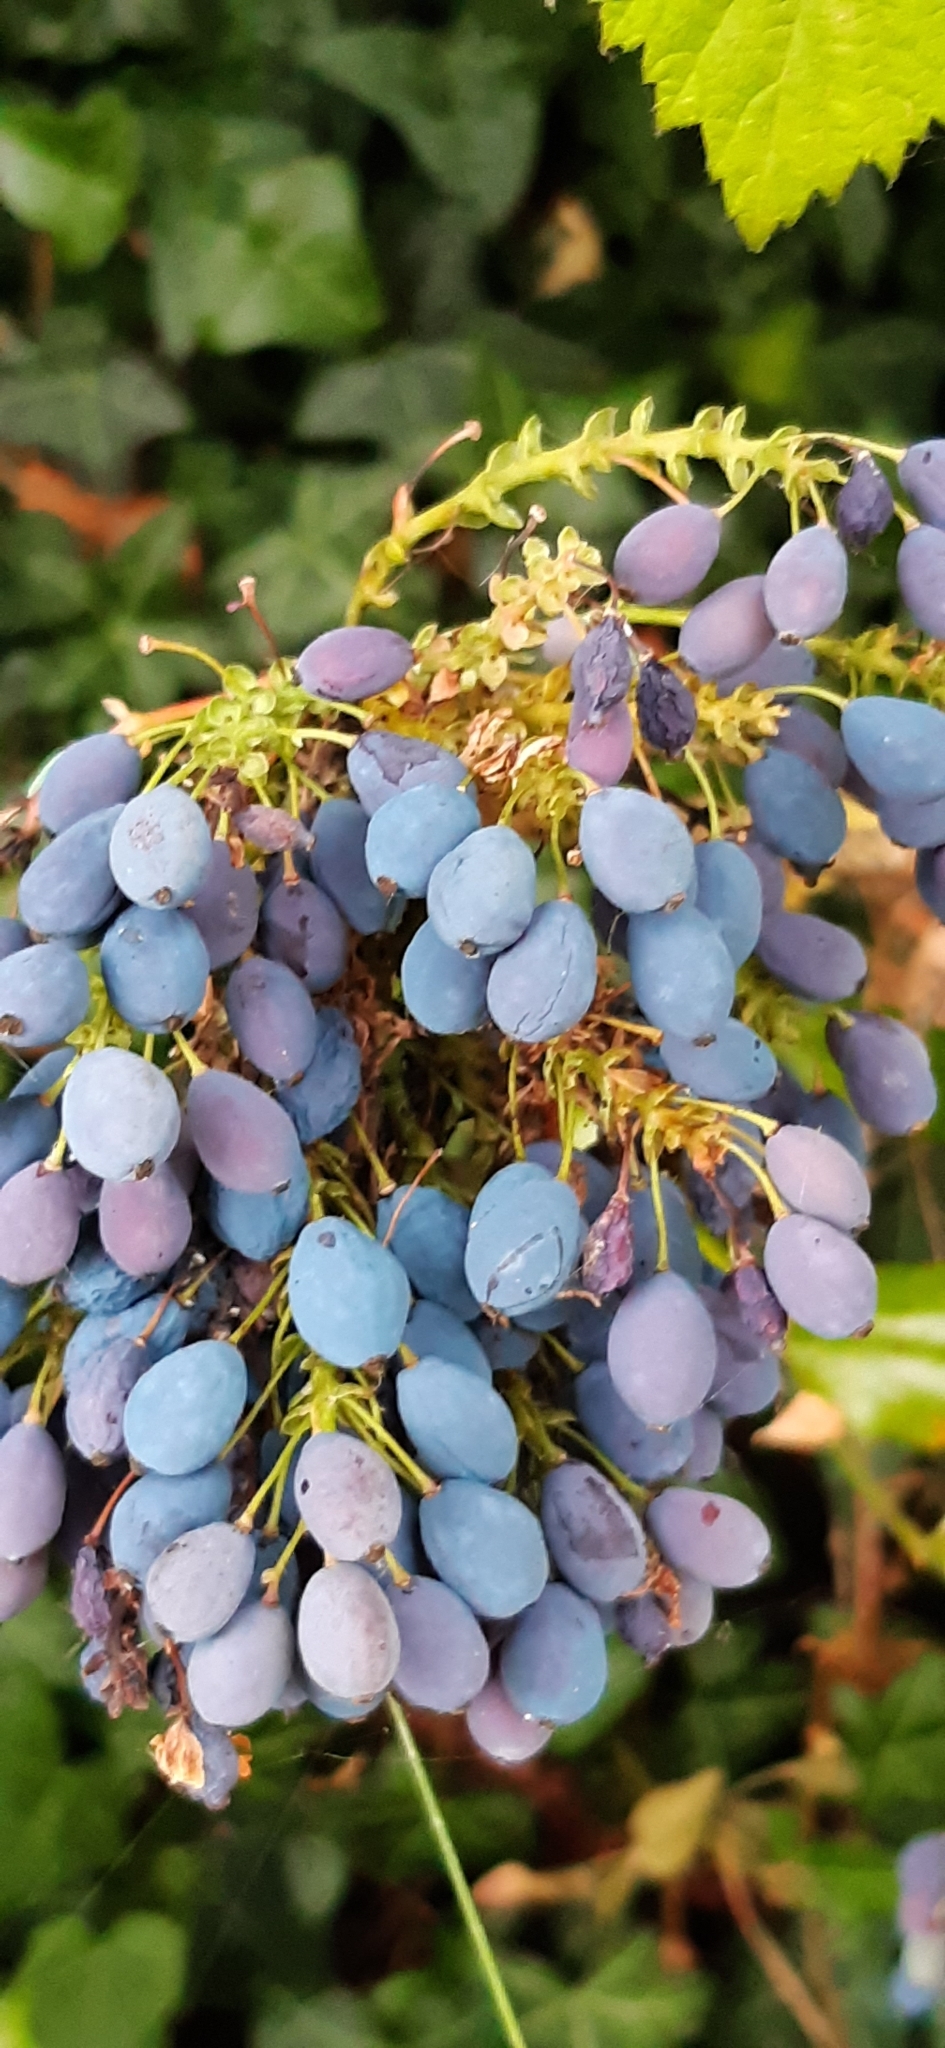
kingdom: Plantae
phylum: Tracheophyta
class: Magnoliopsida
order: Ranunculales
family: Berberidaceae
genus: Mahonia
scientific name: Mahonia aquifolium
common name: Oregon-grape
